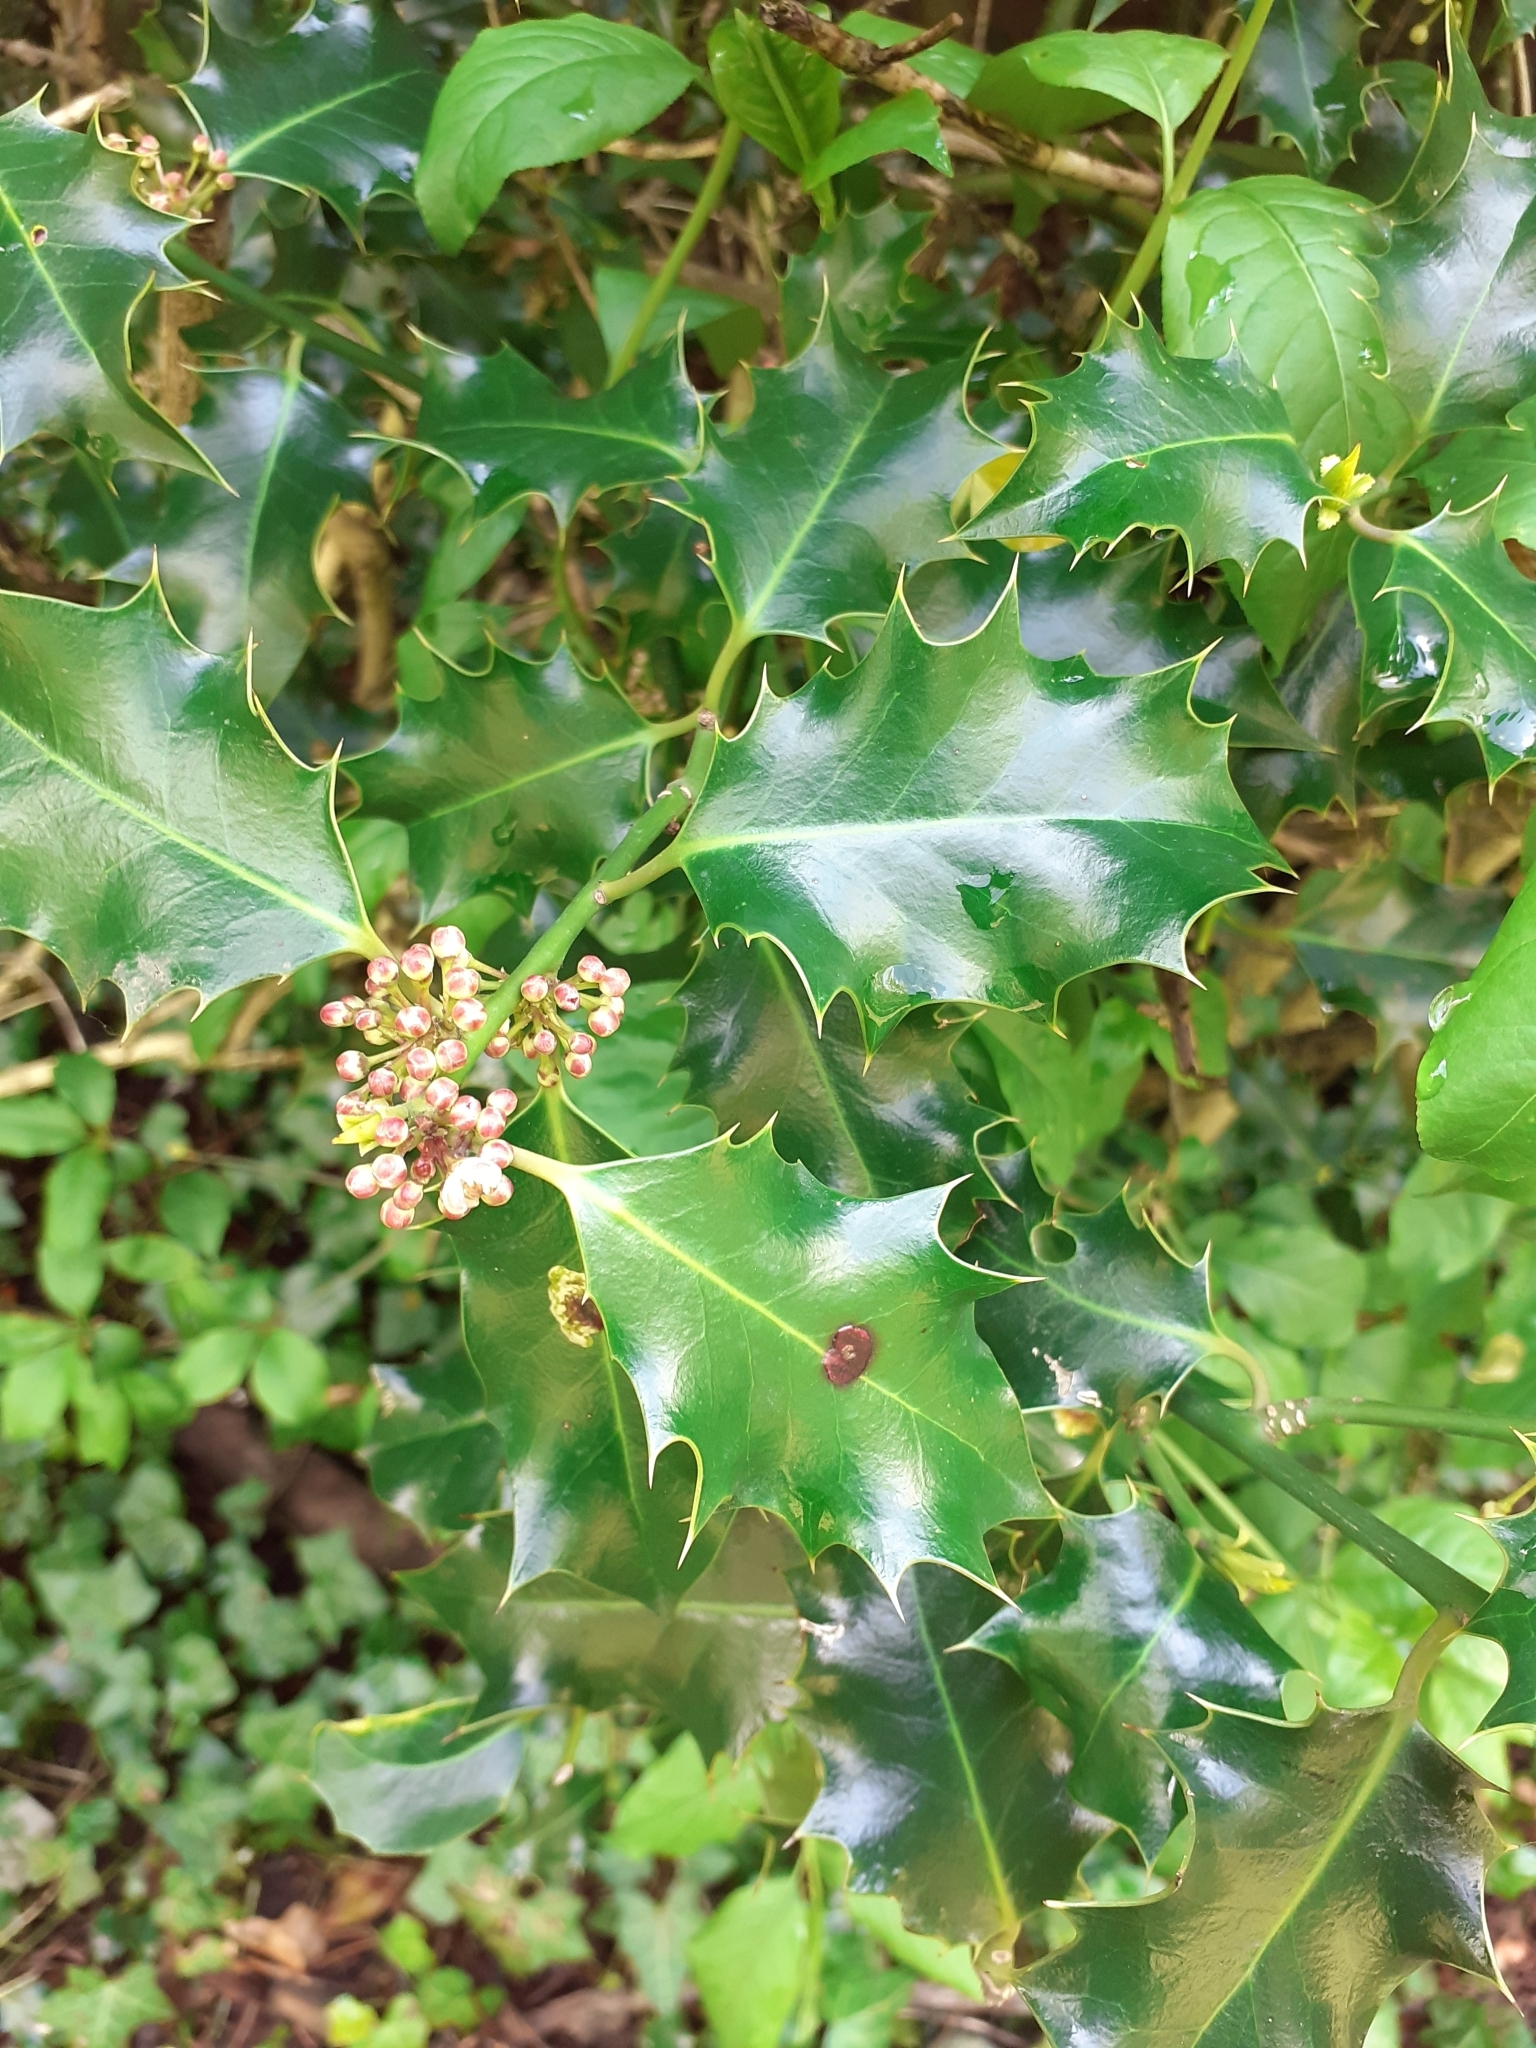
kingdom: Plantae
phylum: Tracheophyta
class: Magnoliopsida
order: Aquifoliales
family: Aquifoliaceae
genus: Ilex
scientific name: Ilex aquifolium
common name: English holly
